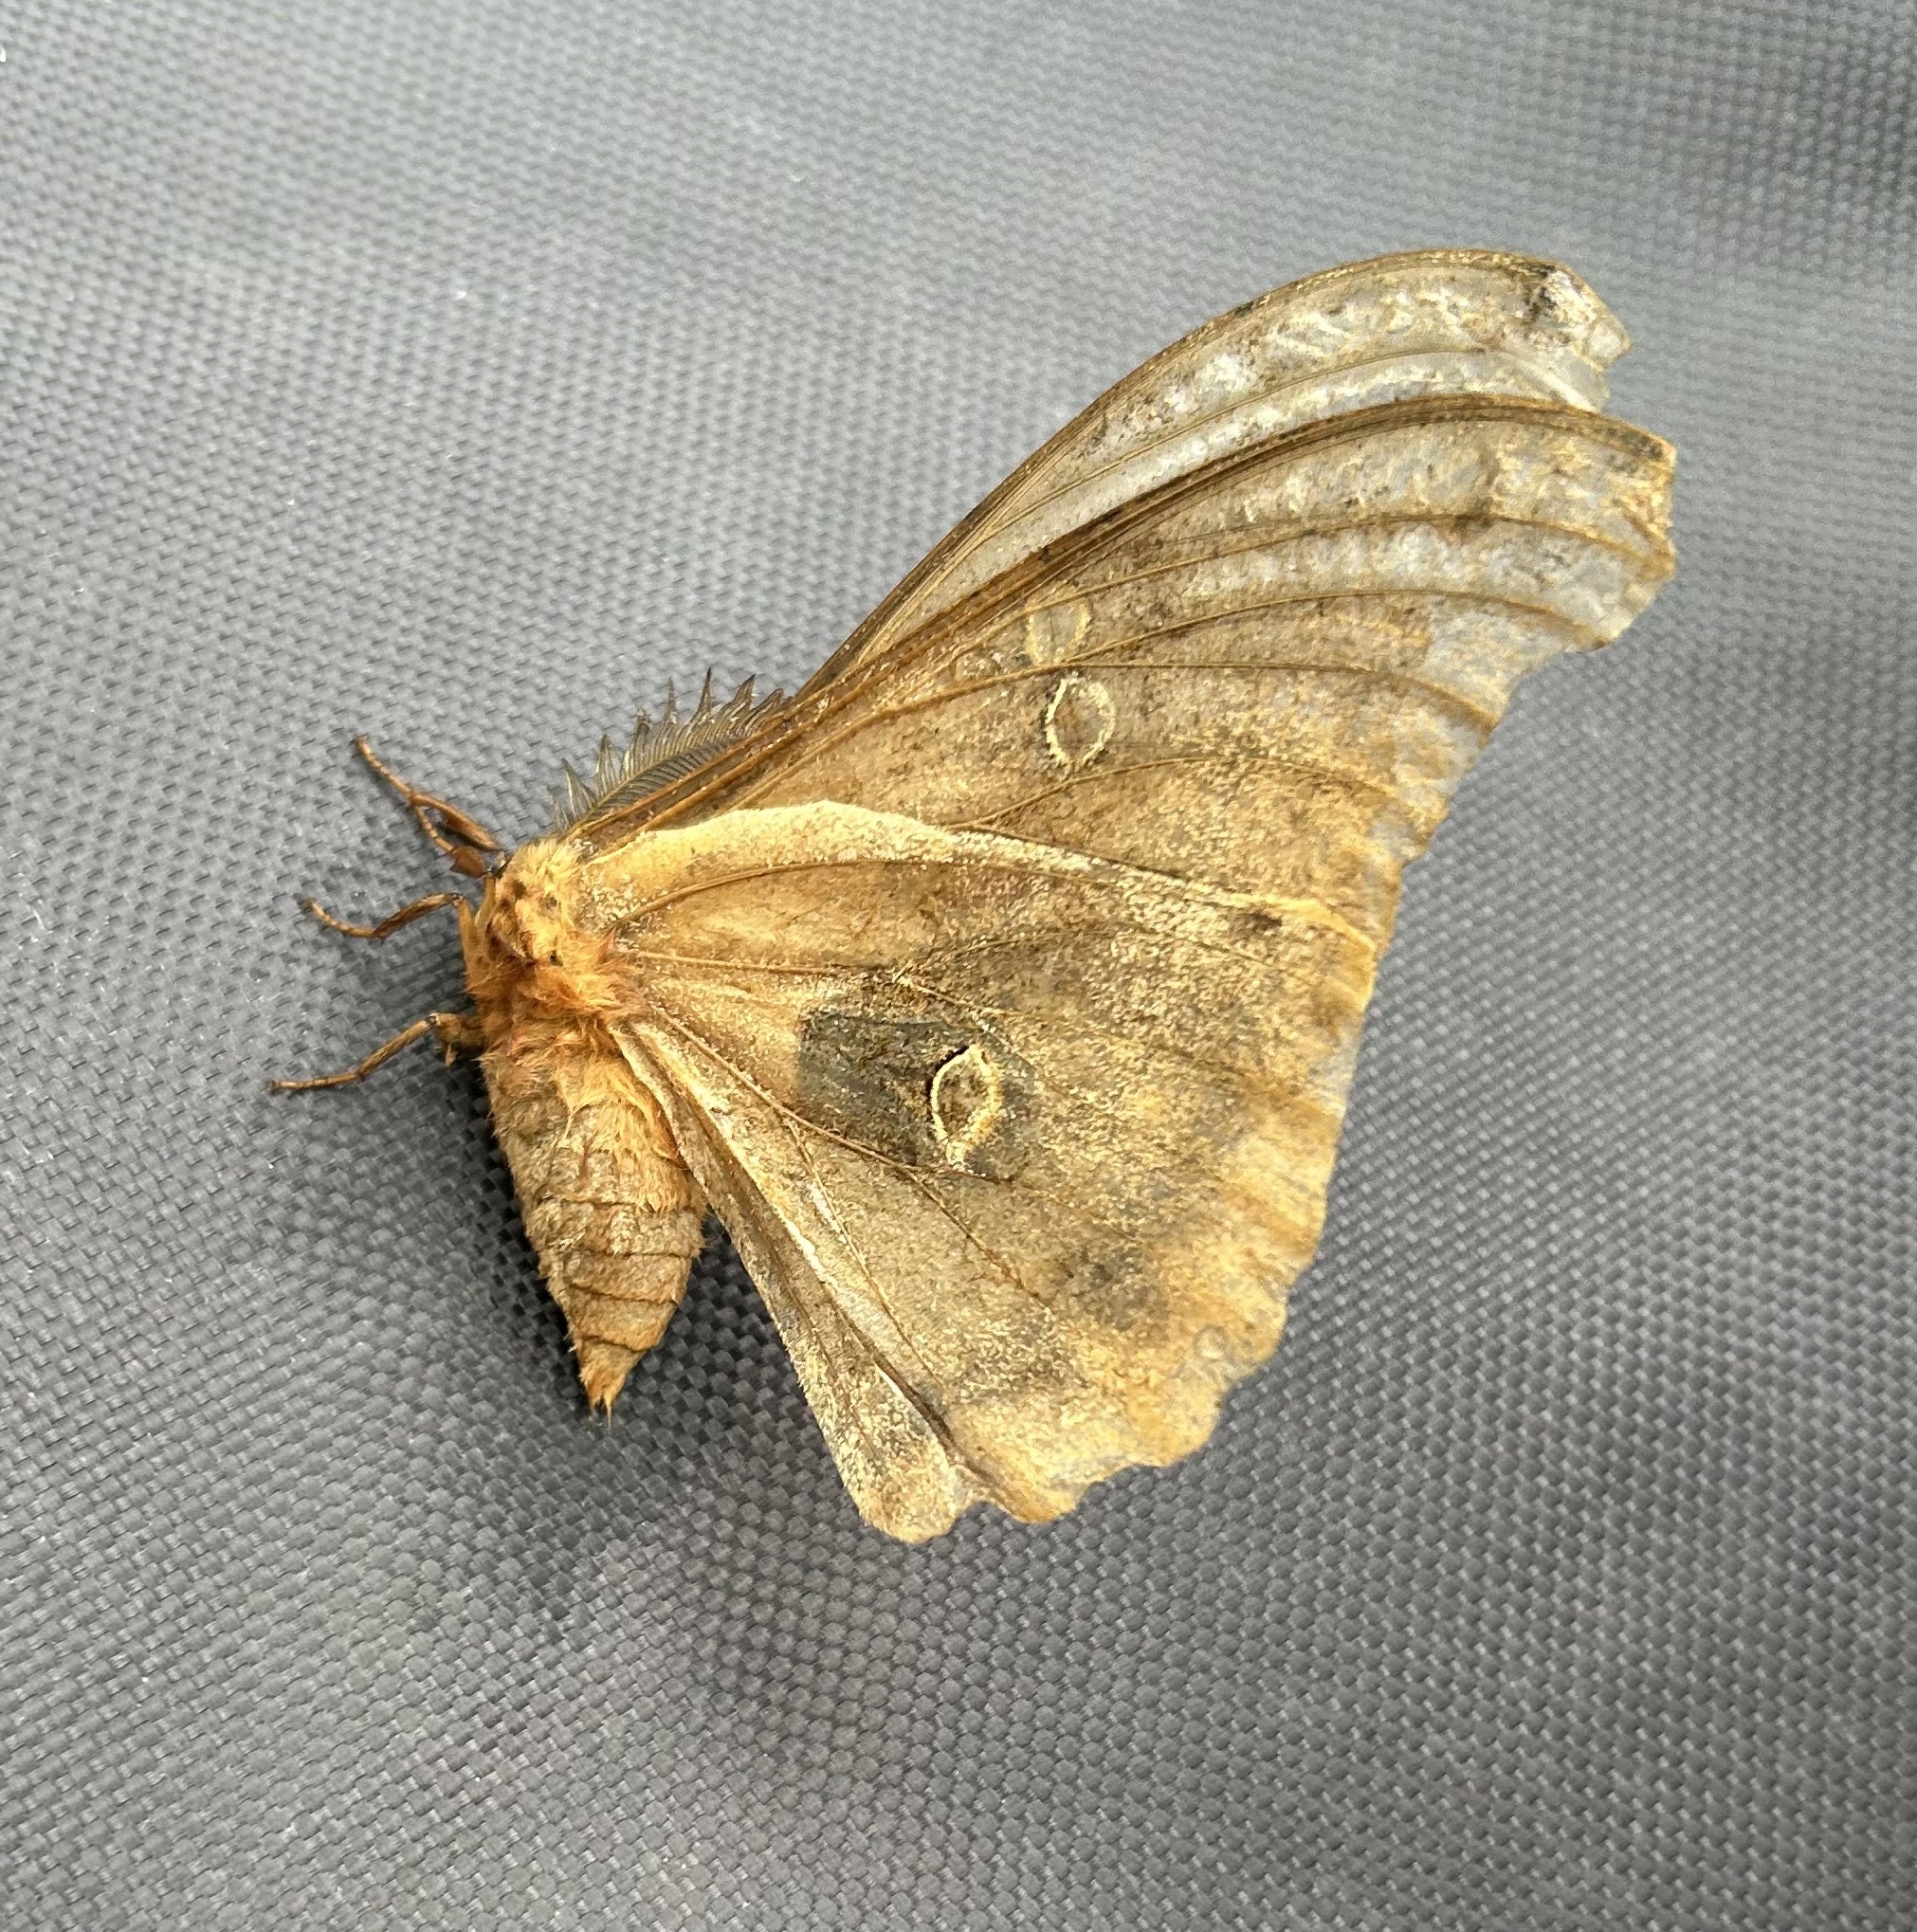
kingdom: Animalia
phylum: Arthropoda
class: Insecta
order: Lepidoptera
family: Saturniidae
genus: Antheraea
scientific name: Antheraea polyphemus
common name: Polyphemus moth
